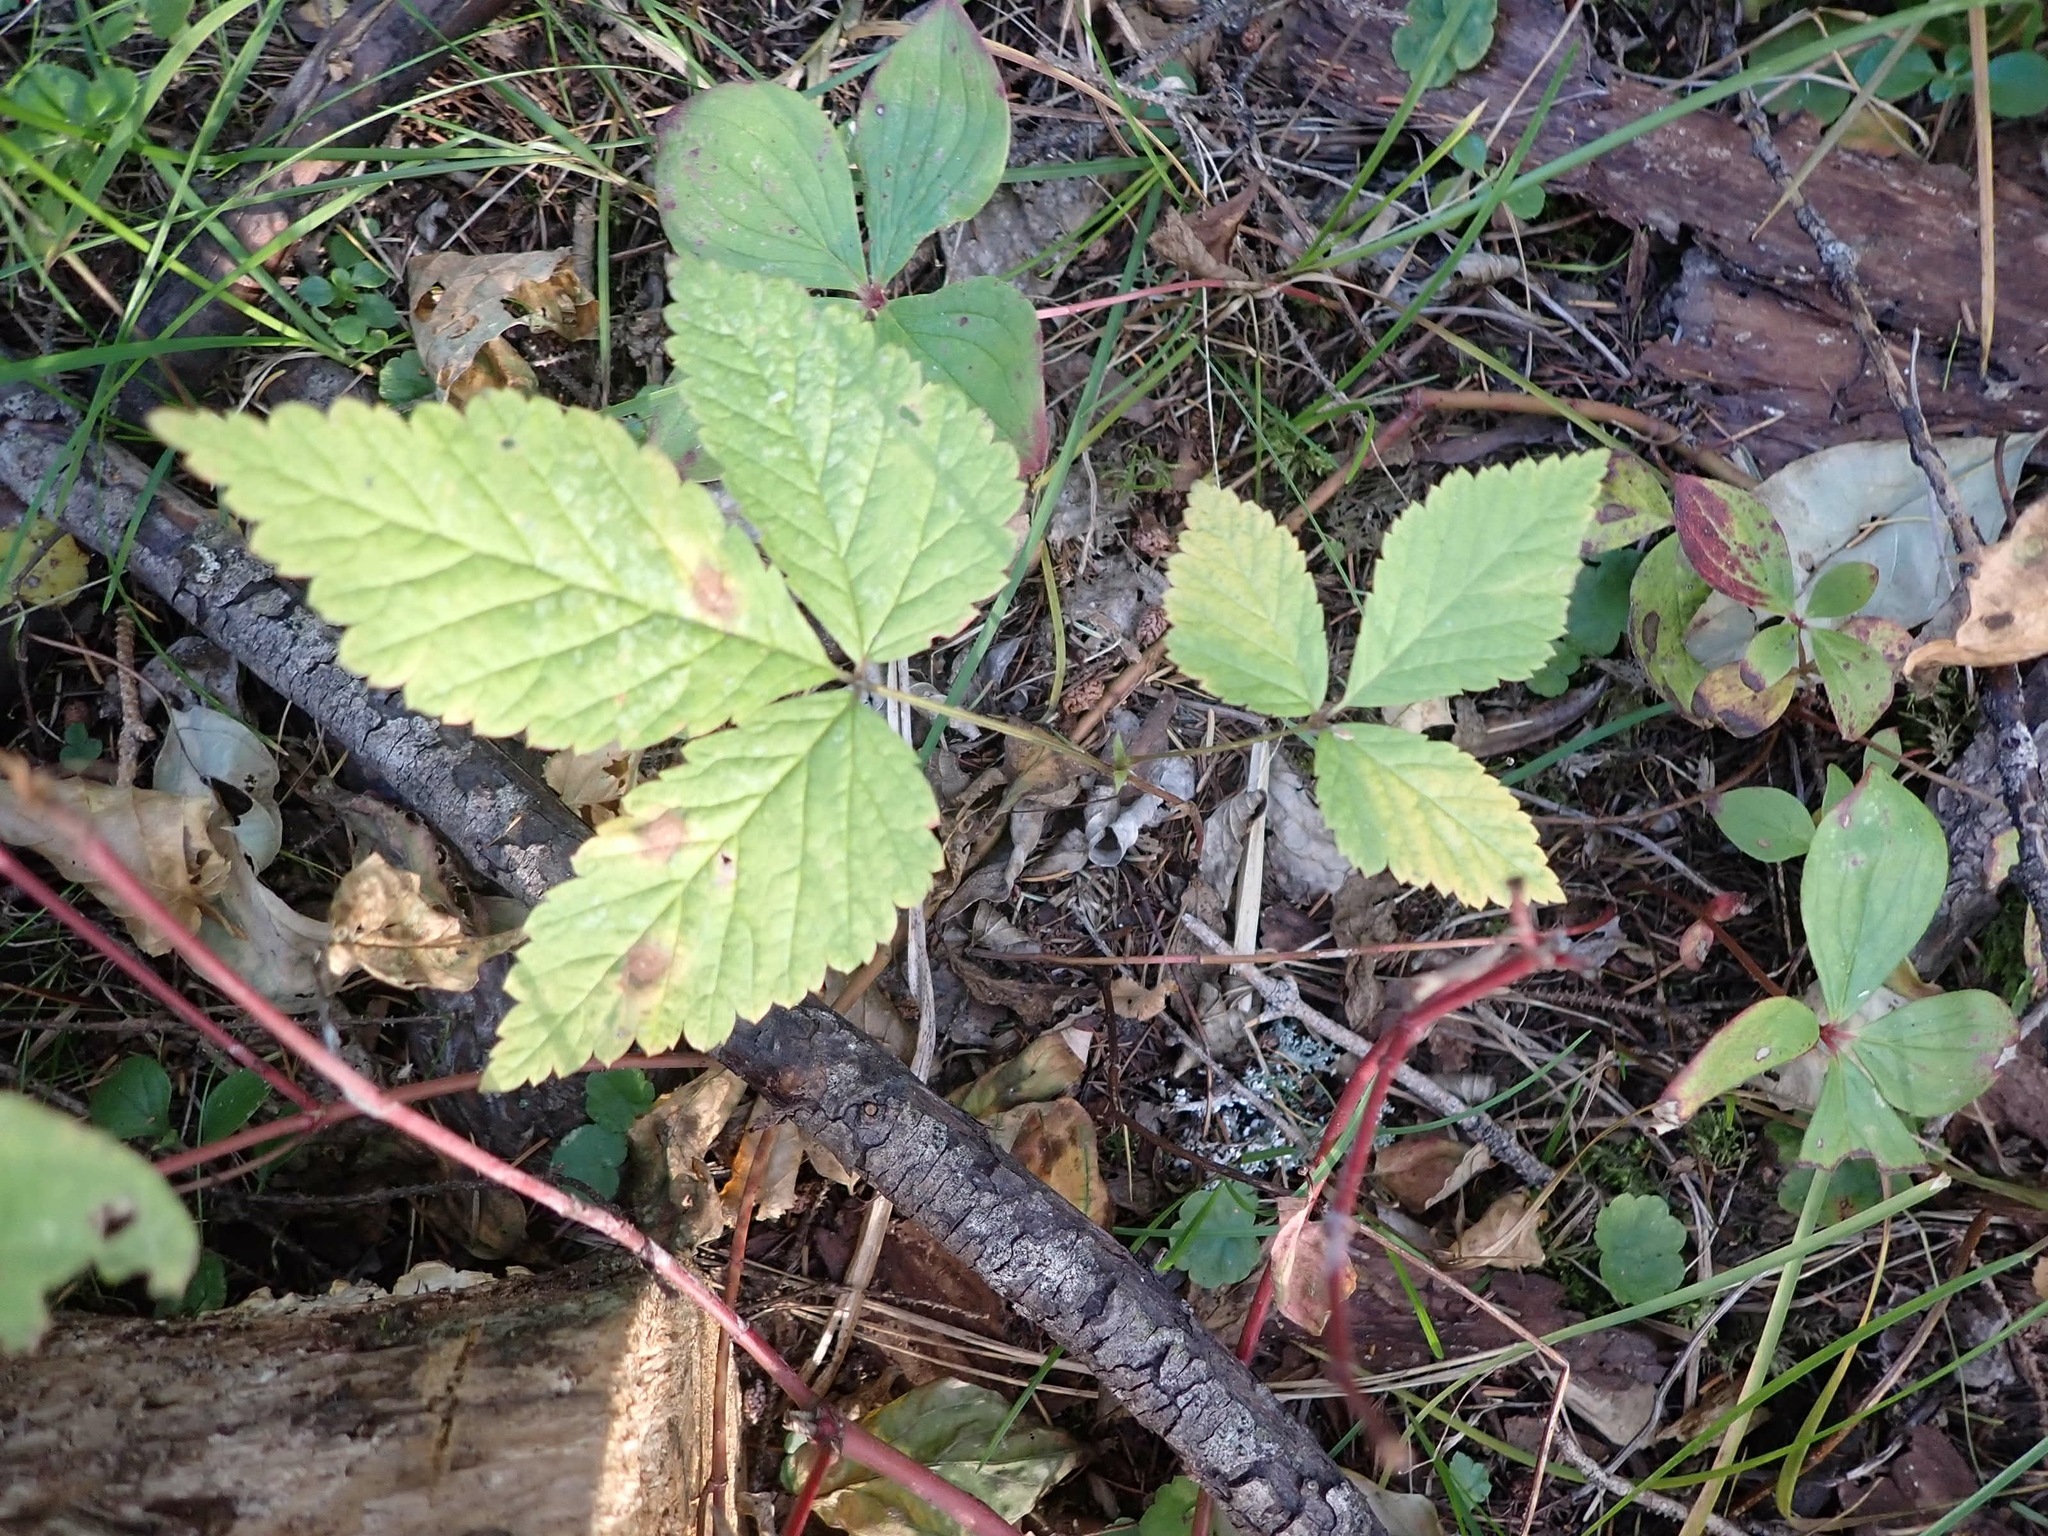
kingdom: Plantae
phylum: Tracheophyta
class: Magnoliopsida
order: Rosales
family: Rosaceae
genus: Rubus
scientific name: Rubus pubescens
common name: Dwarf raspberry
